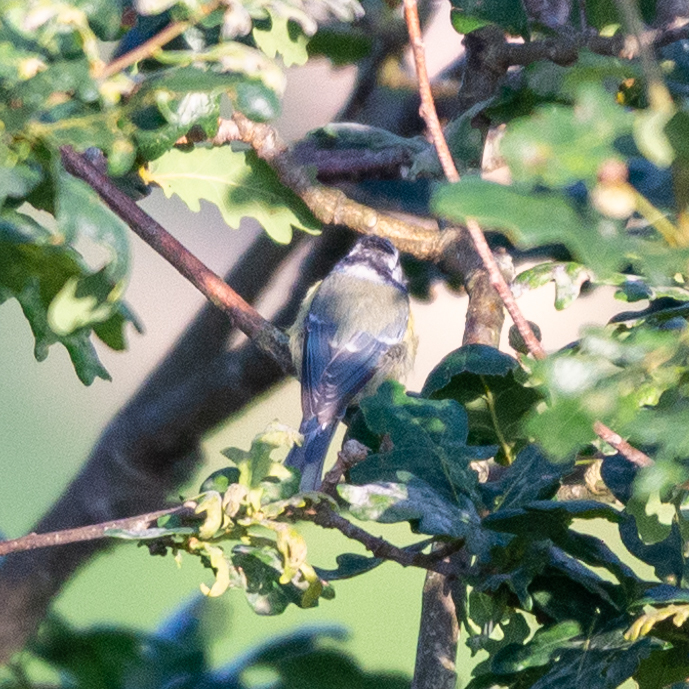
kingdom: Animalia
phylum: Chordata
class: Aves
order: Passeriformes
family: Paridae
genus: Cyanistes
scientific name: Cyanistes caeruleus
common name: Eurasian blue tit
